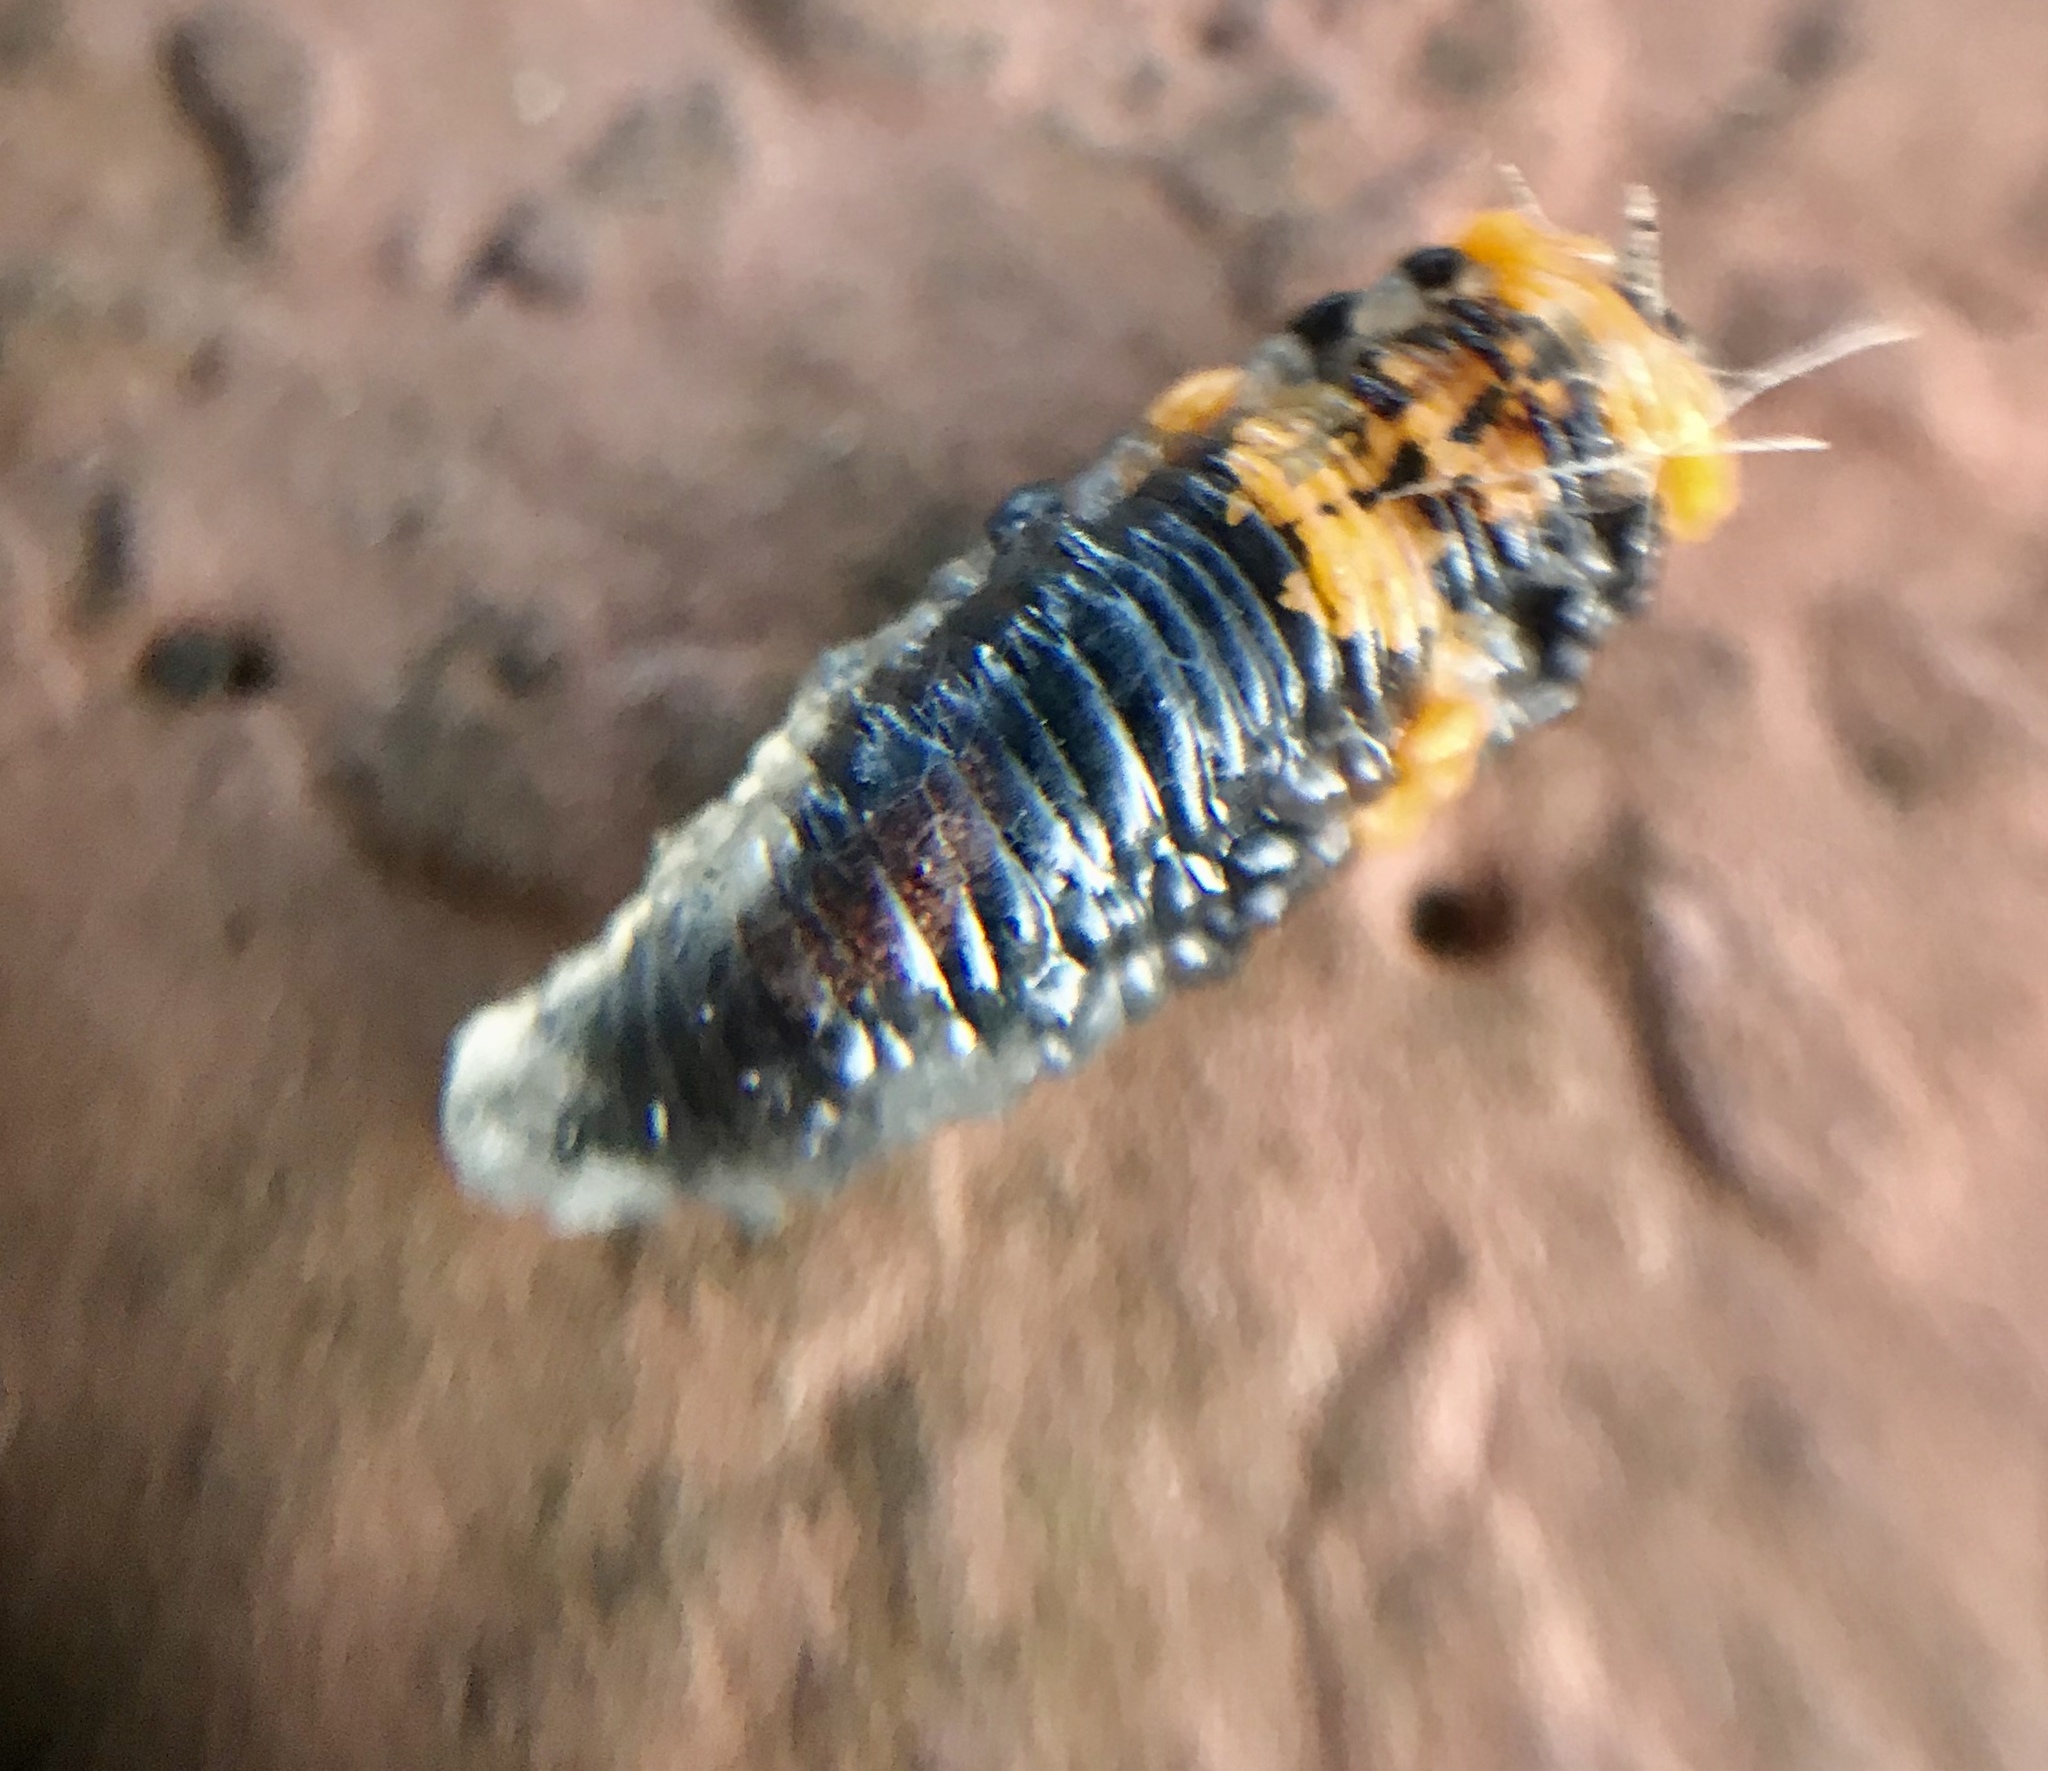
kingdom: Animalia
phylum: Arthropoda
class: Insecta
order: Diptera
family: Syrphidae
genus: Ocyptamus
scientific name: Ocyptamus gastrostactus
